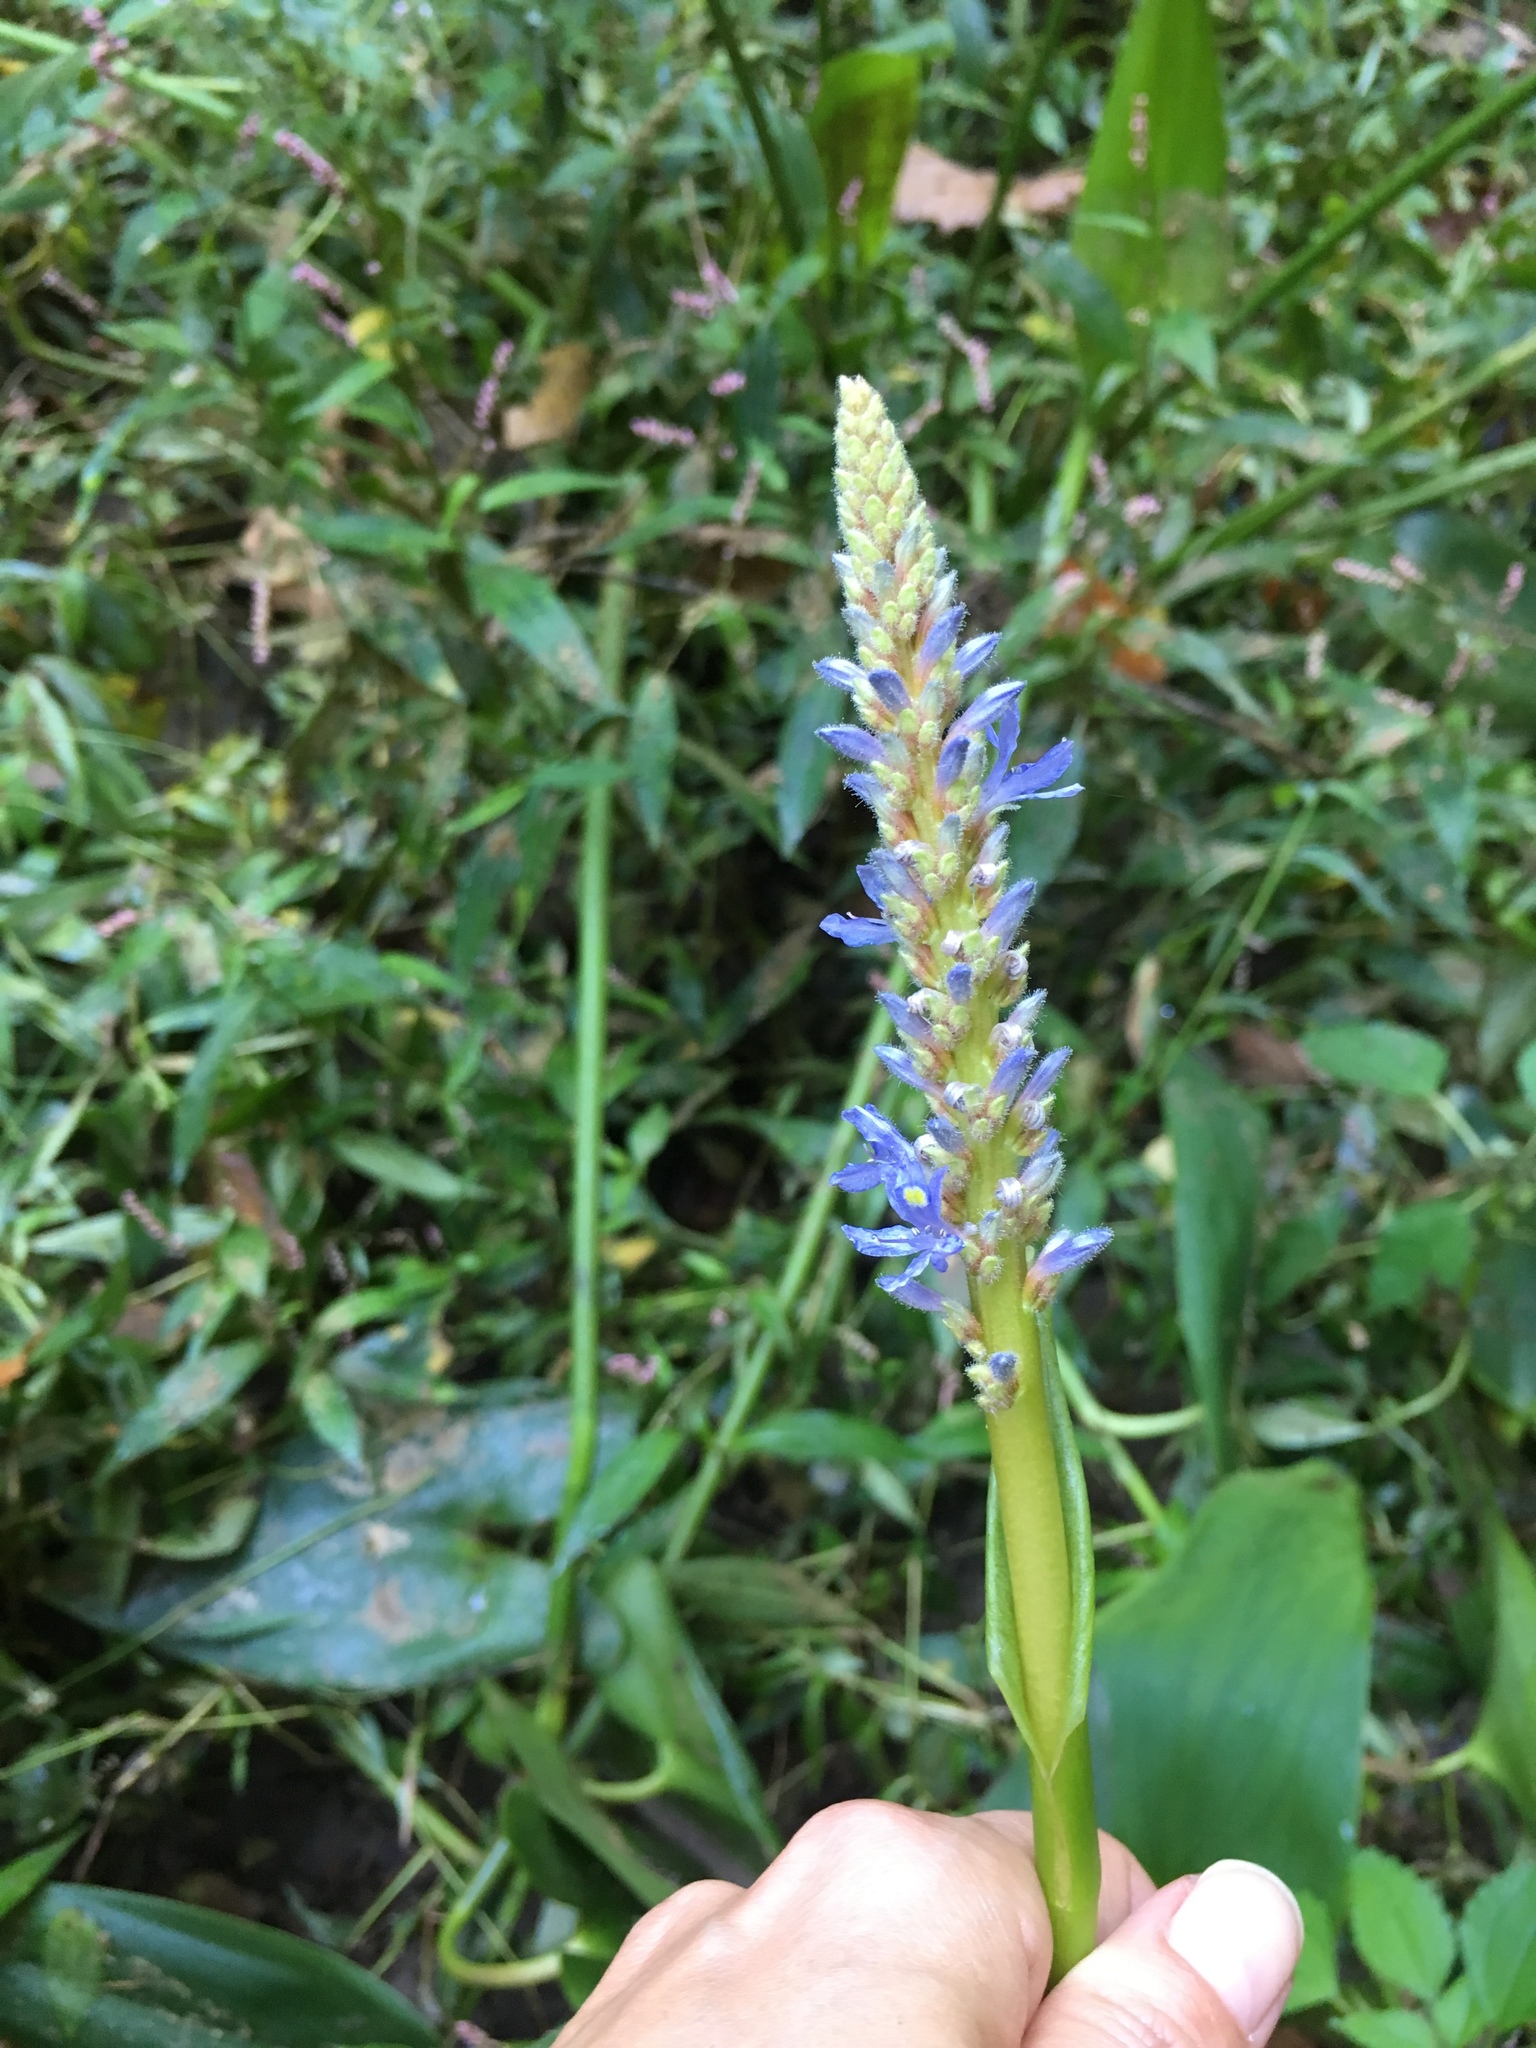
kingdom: Plantae
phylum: Tracheophyta
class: Liliopsida
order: Commelinales
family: Pontederiaceae
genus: Pontederia
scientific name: Pontederia cordata
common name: Pickerelweed
